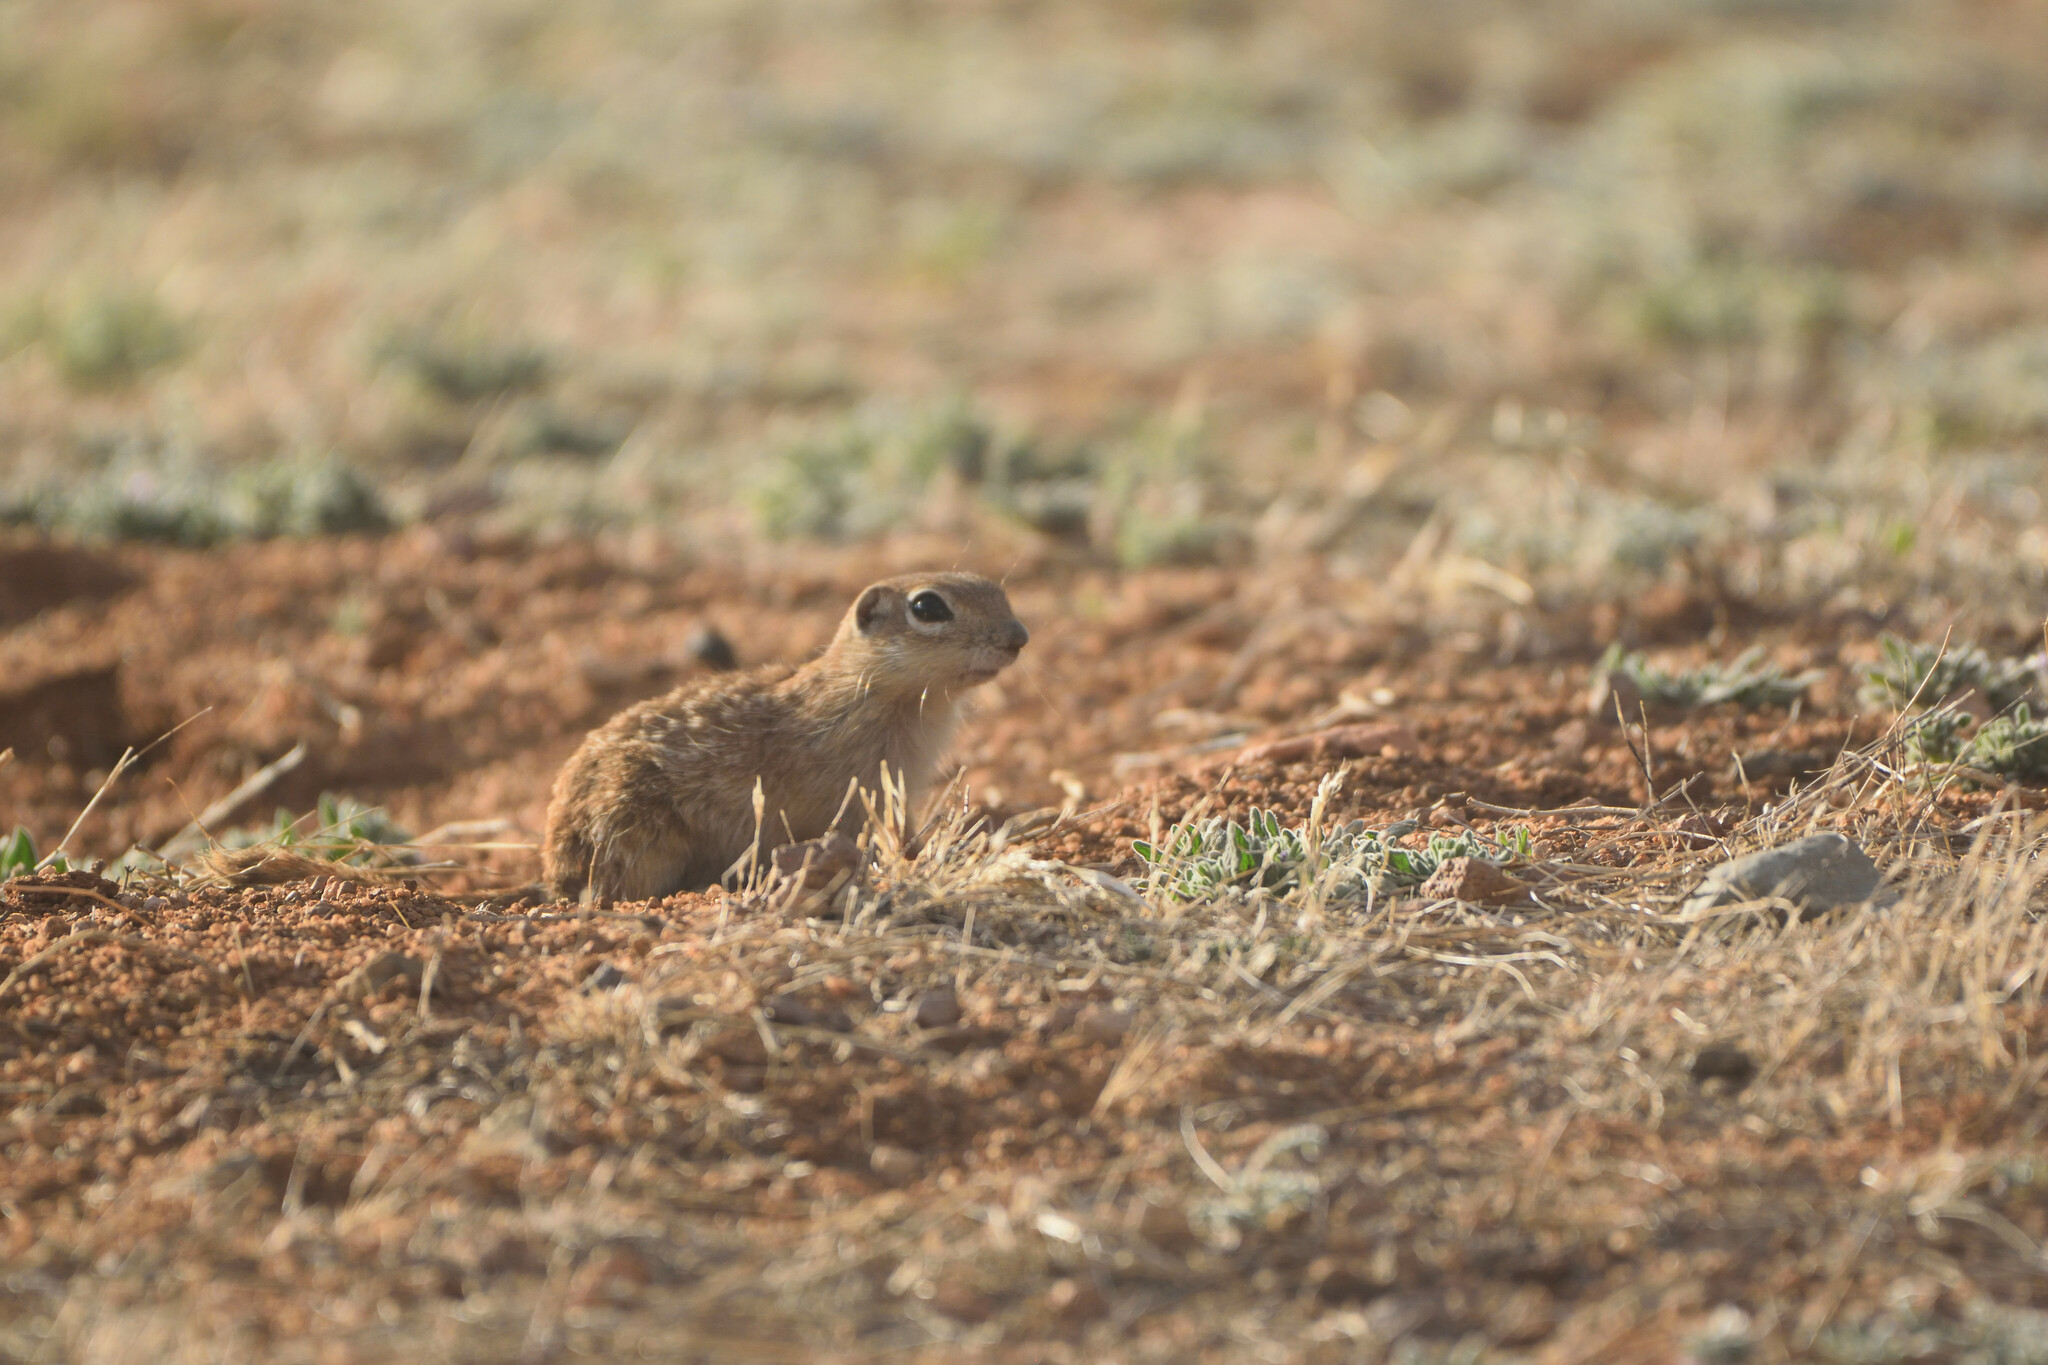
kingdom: Animalia
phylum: Chordata
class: Mammalia
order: Rodentia
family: Sciuridae
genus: Xerospermophilus
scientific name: Xerospermophilus spilosoma
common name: Spotted ground squirrel
